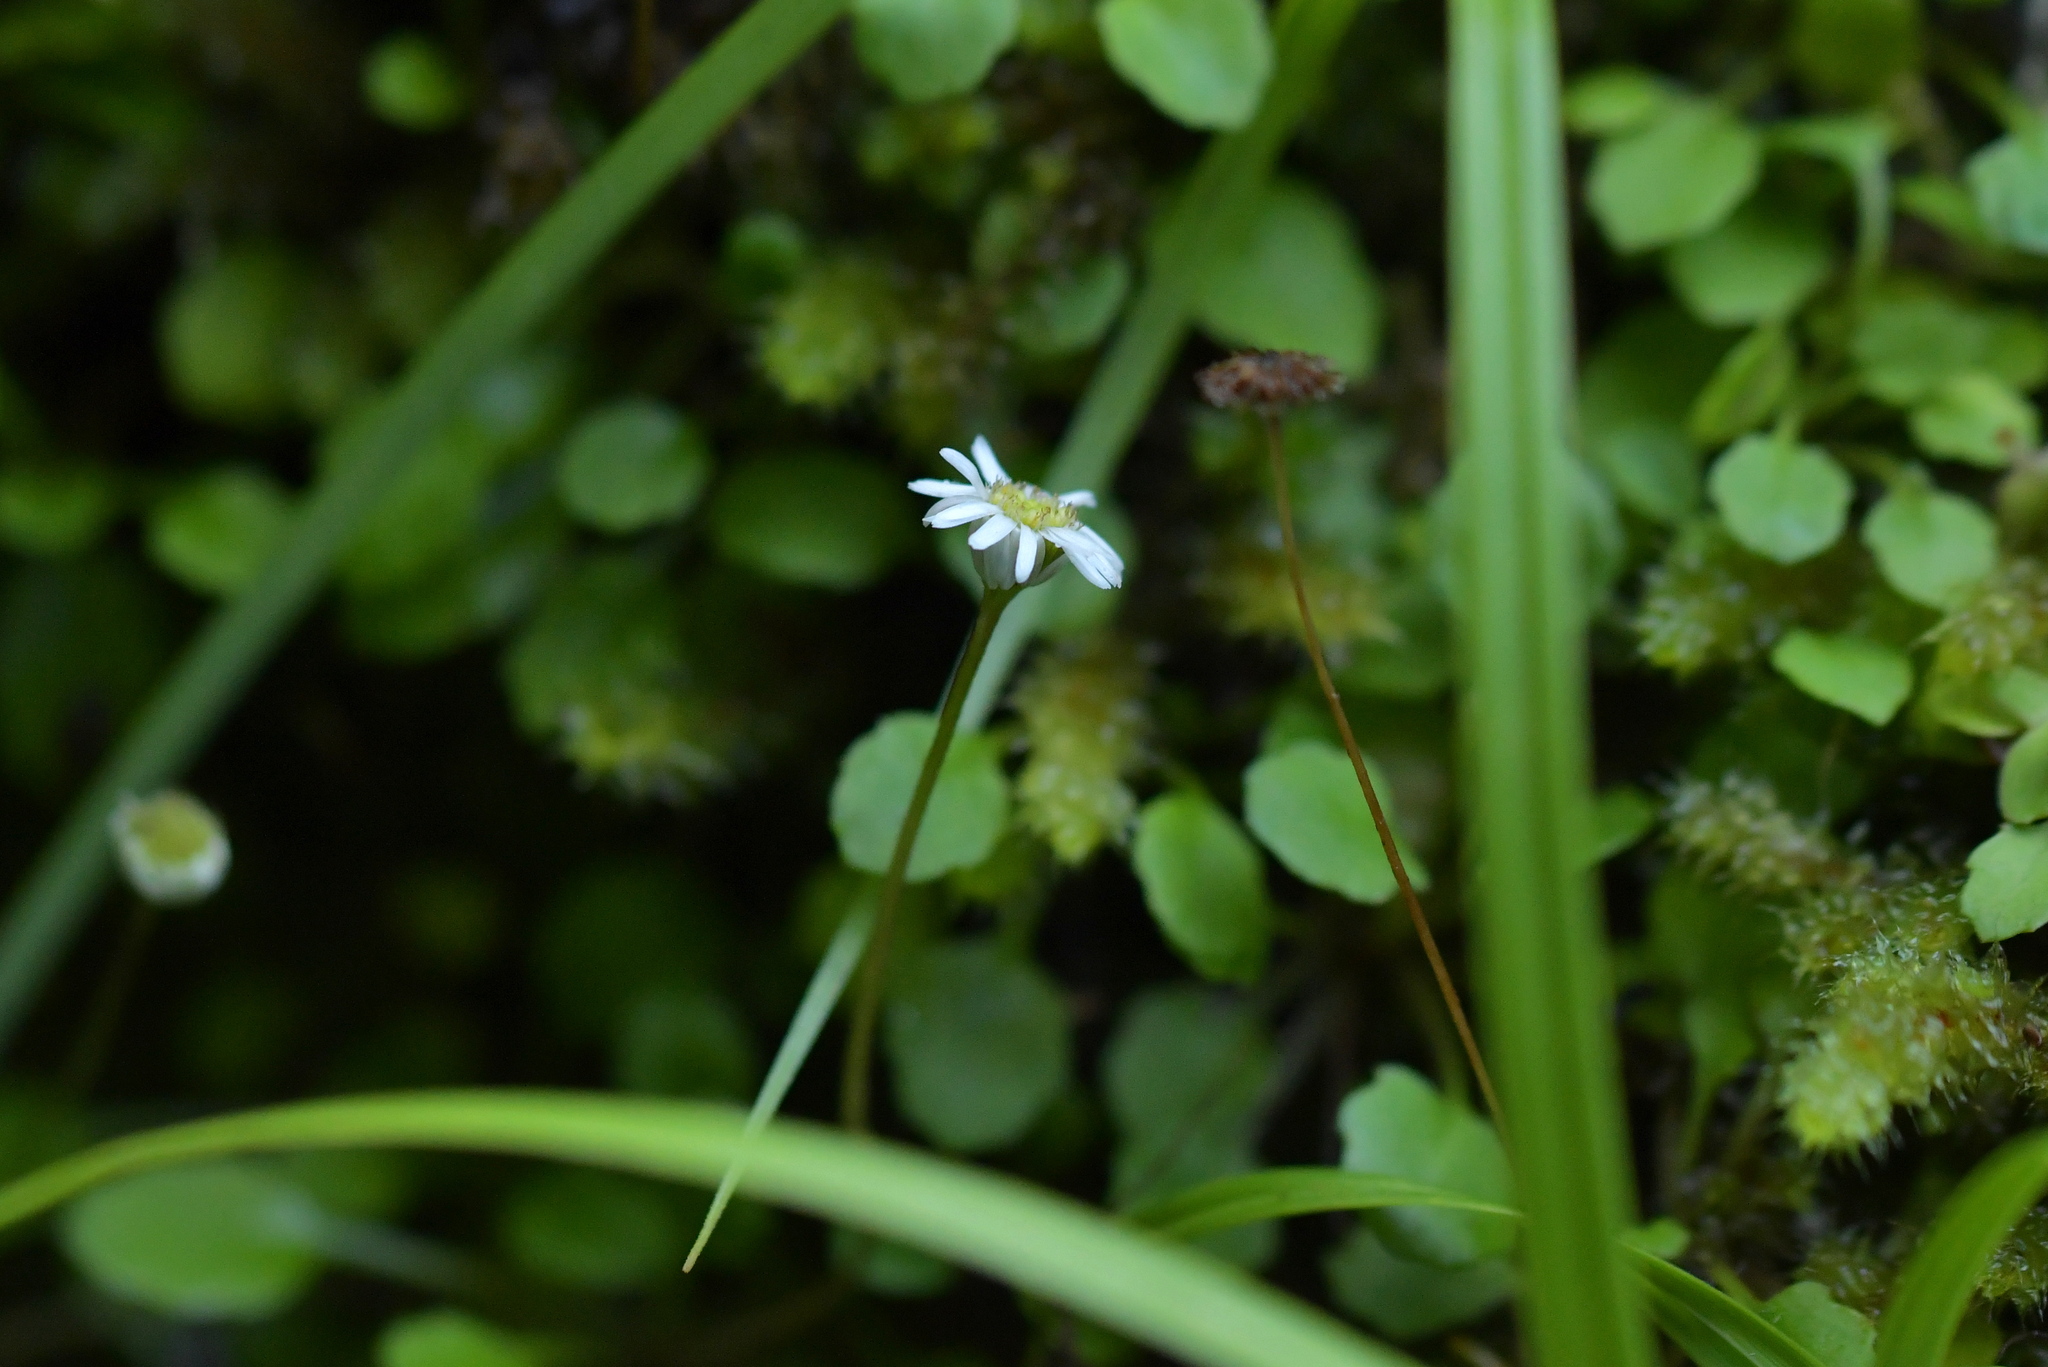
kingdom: Plantae
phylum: Tracheophyta
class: Magnoliopsida
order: Asterales
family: Asteraceae
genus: Lagenophora
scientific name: Lagenophora strangulata
